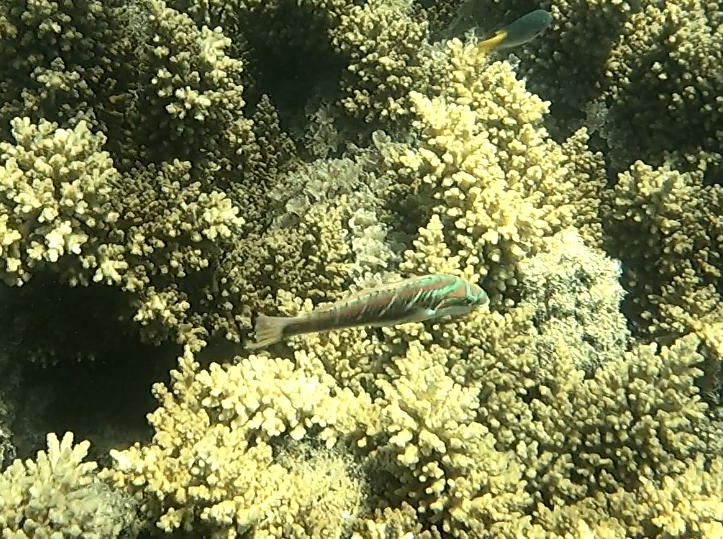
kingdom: Animalia
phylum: Chordata
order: Perciformes
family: Labridae
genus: Thalassoma
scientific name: Thalassoma quinquevittatum
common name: Five striped surge wrasse
